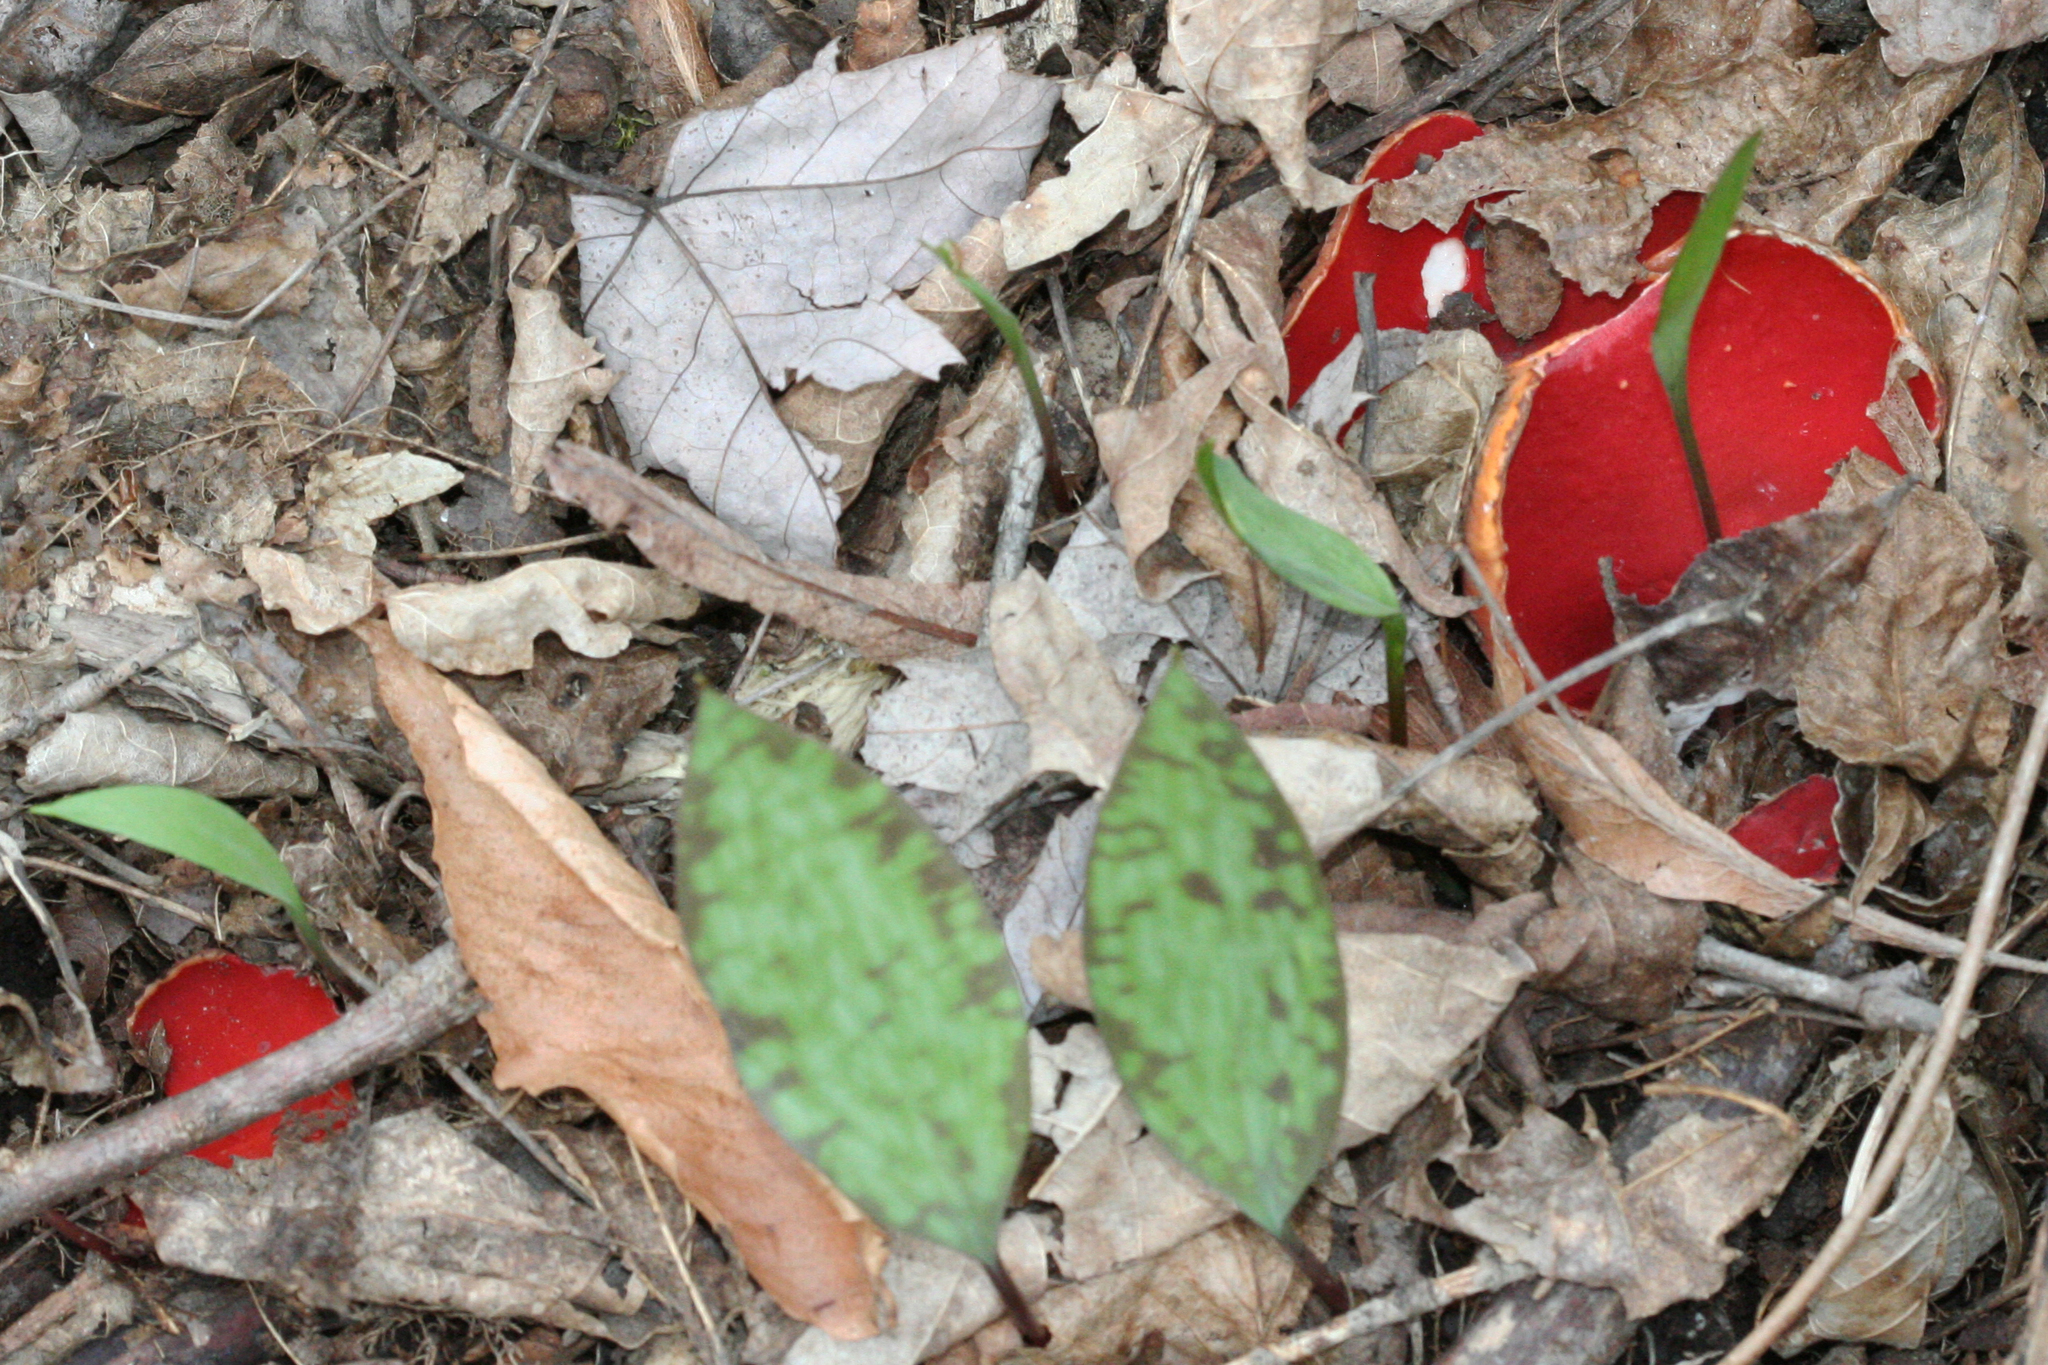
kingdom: Fungi
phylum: Ascomycota
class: Pezizomycetes
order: Pezizales
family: Sarcoscyphaceae
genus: Sarcoscypha
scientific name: Sarcoscypha austriaca
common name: Scarlet elfcup
